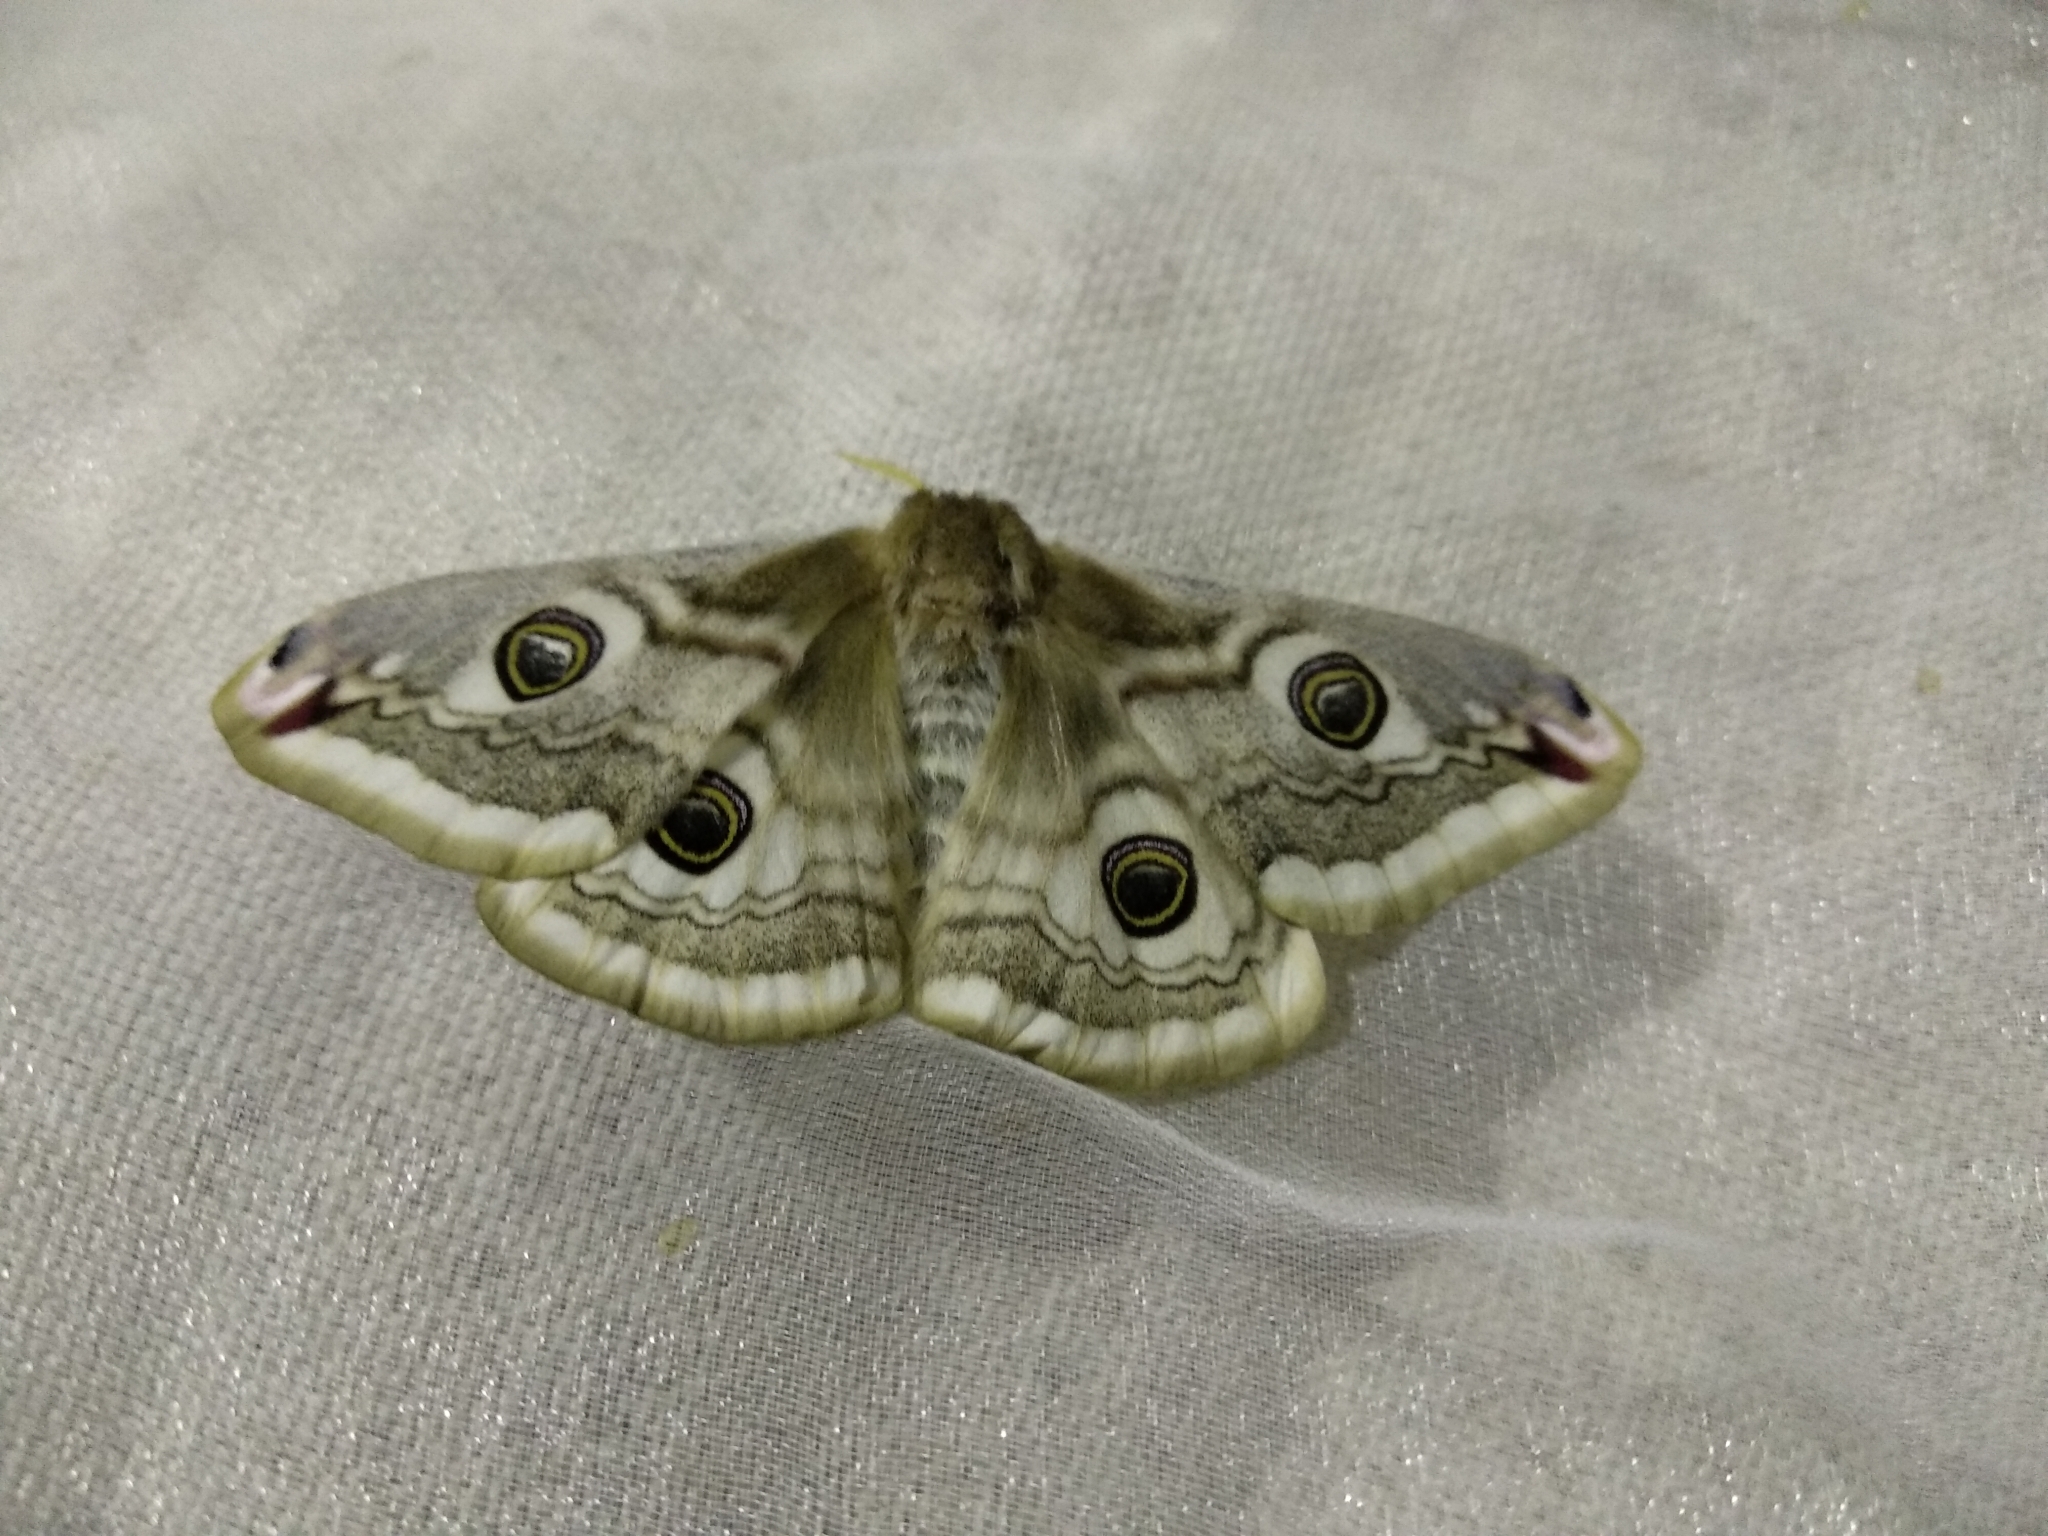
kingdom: Animalia
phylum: Arthropoda
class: Insecta
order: Lepidoptera
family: Saturniidae
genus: Saturnia
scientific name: Saturnia pavonia
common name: Emperor moth
